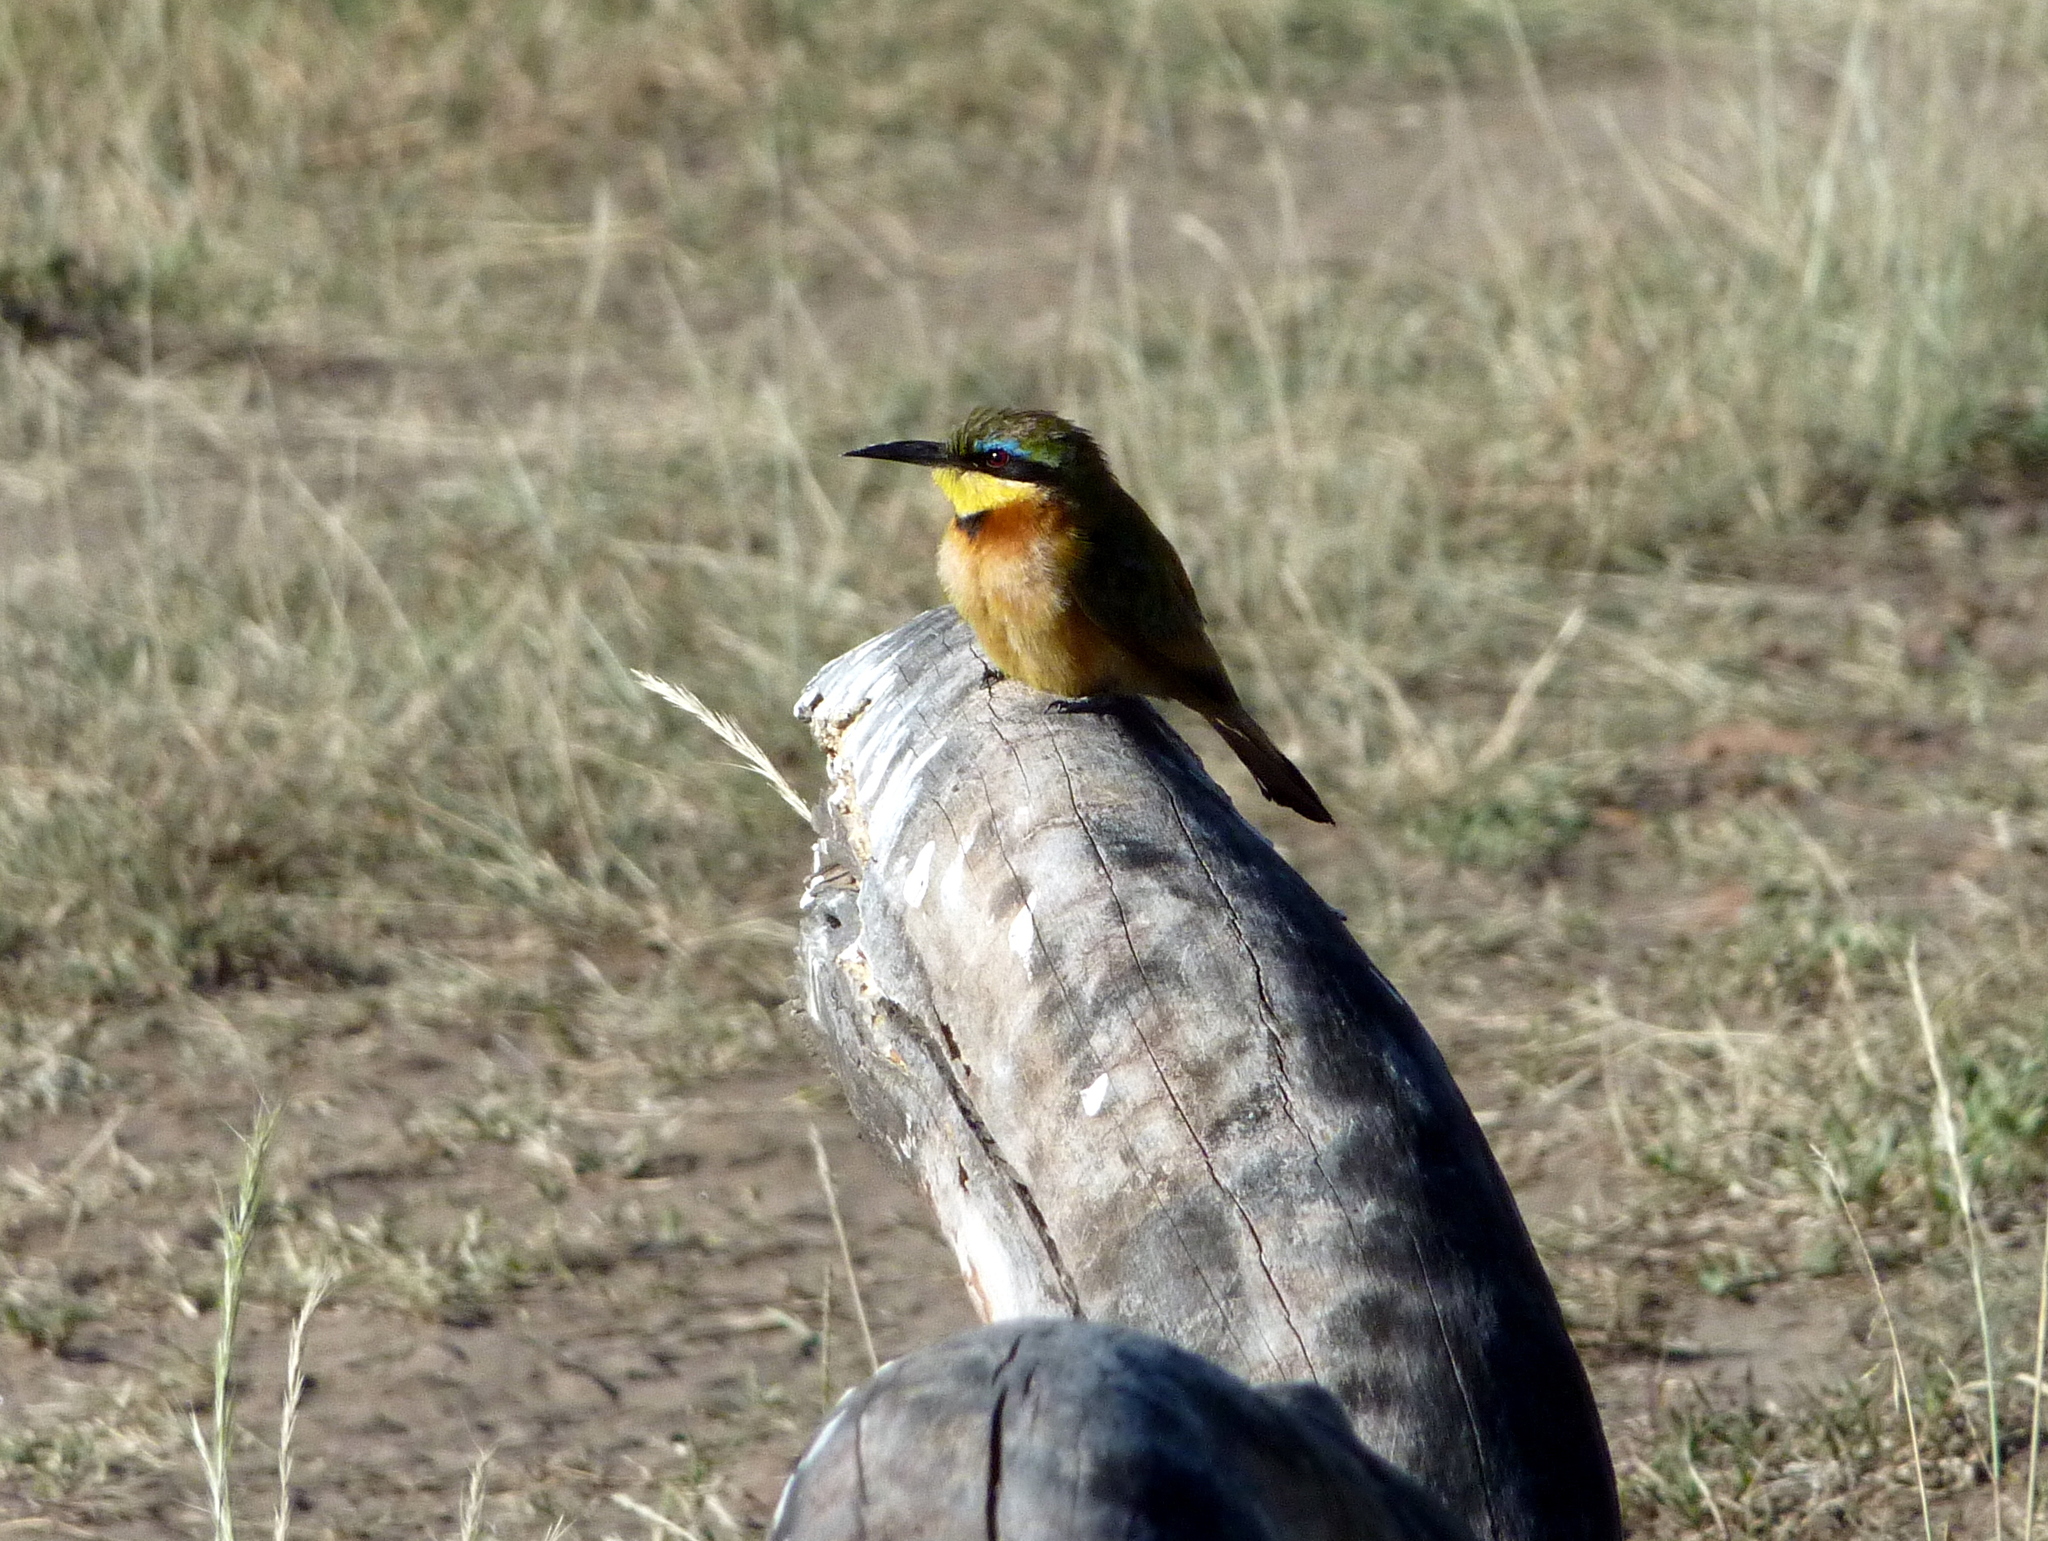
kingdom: Animalia
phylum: Chordata
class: Aves
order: Coraciiformes
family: Meropidae
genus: Merops
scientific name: Merops pusillus
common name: Little bee-eater
